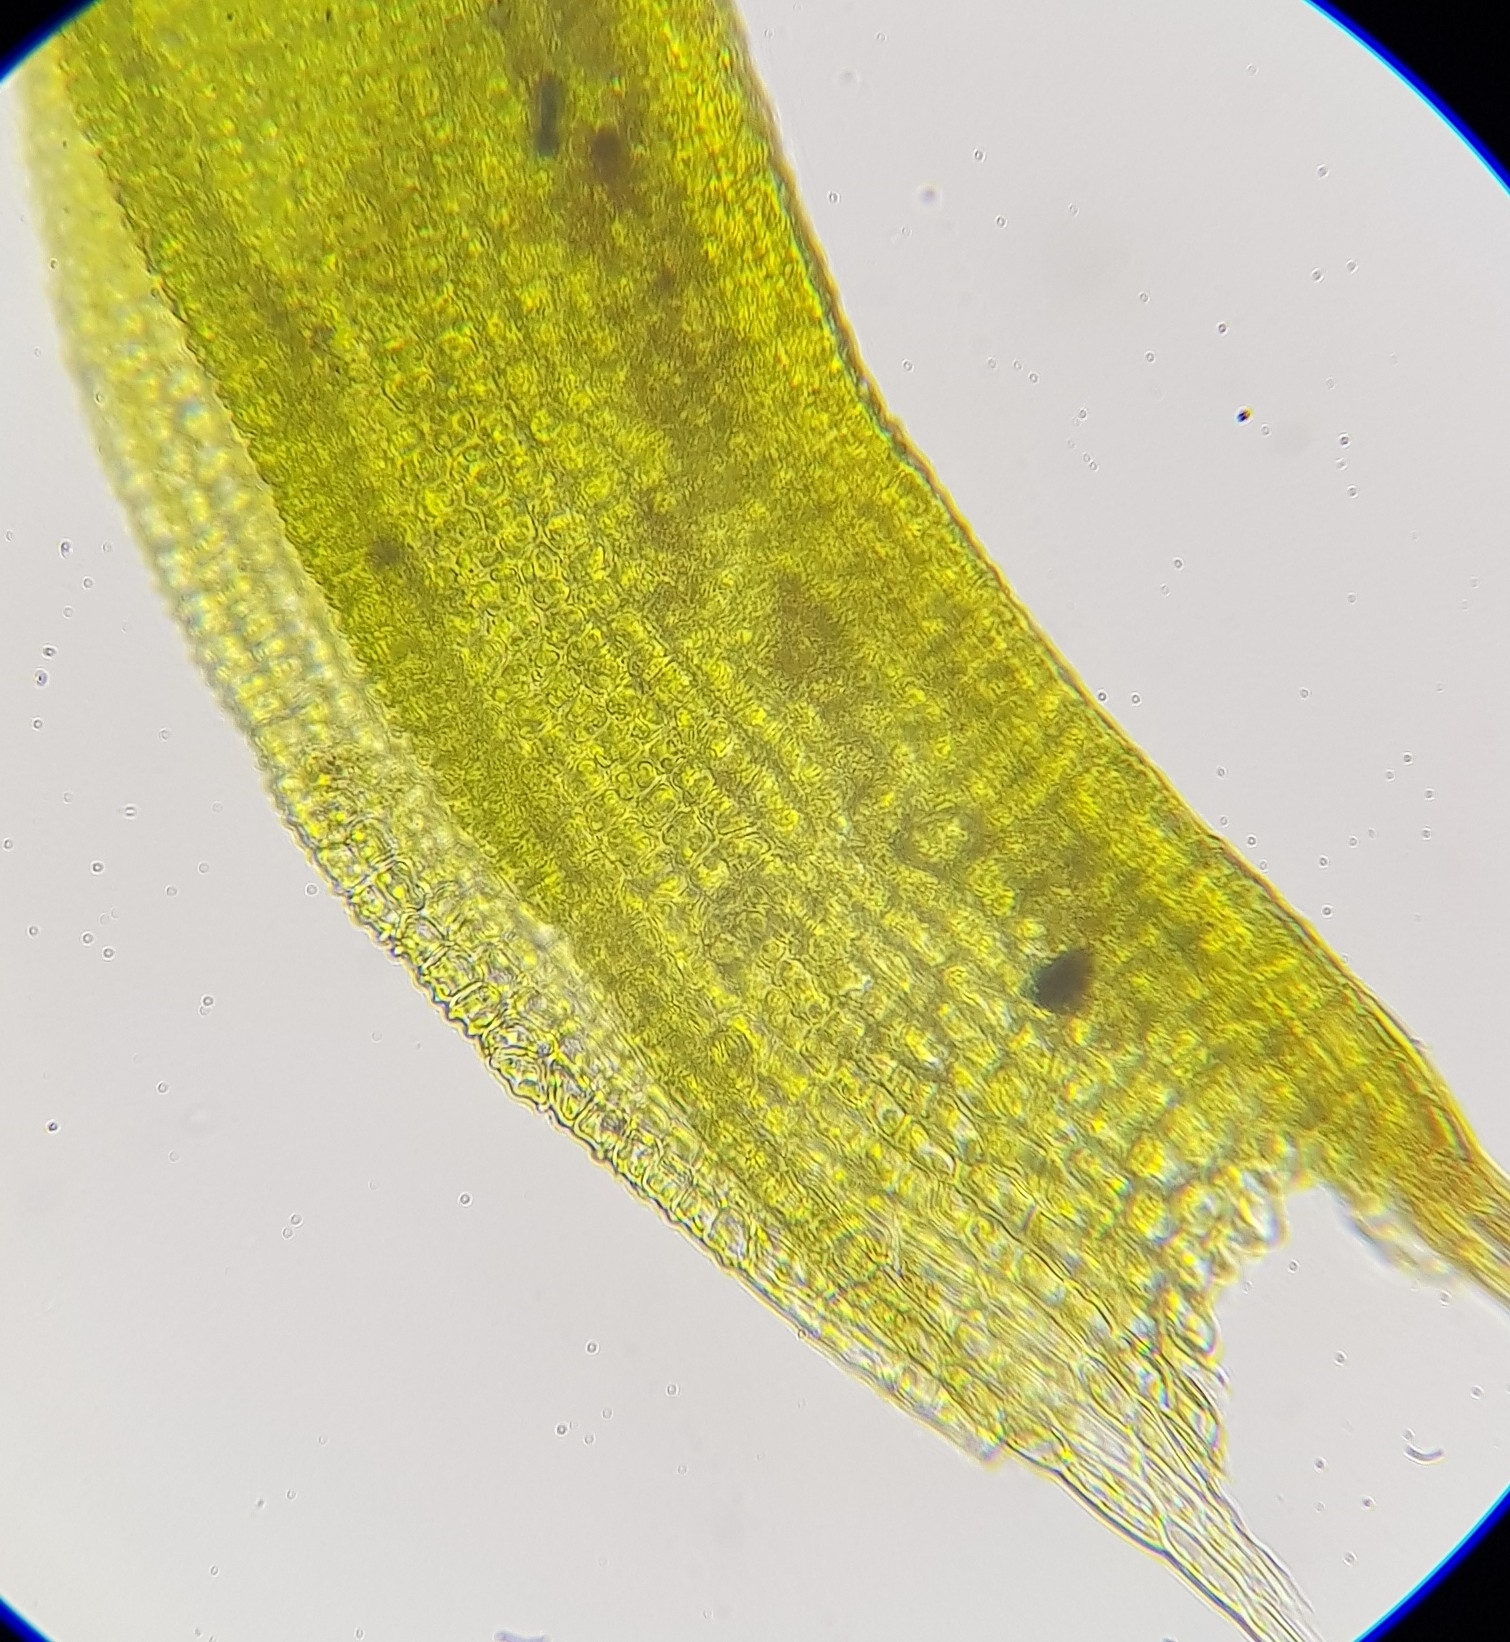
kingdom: Plantae
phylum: Bryophyta
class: Bryopsida
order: Pottiales
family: Pottiaceae
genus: Streblotrichum
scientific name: Streblotrichum convolutum
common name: Lesser bird's-claw beard-moss
